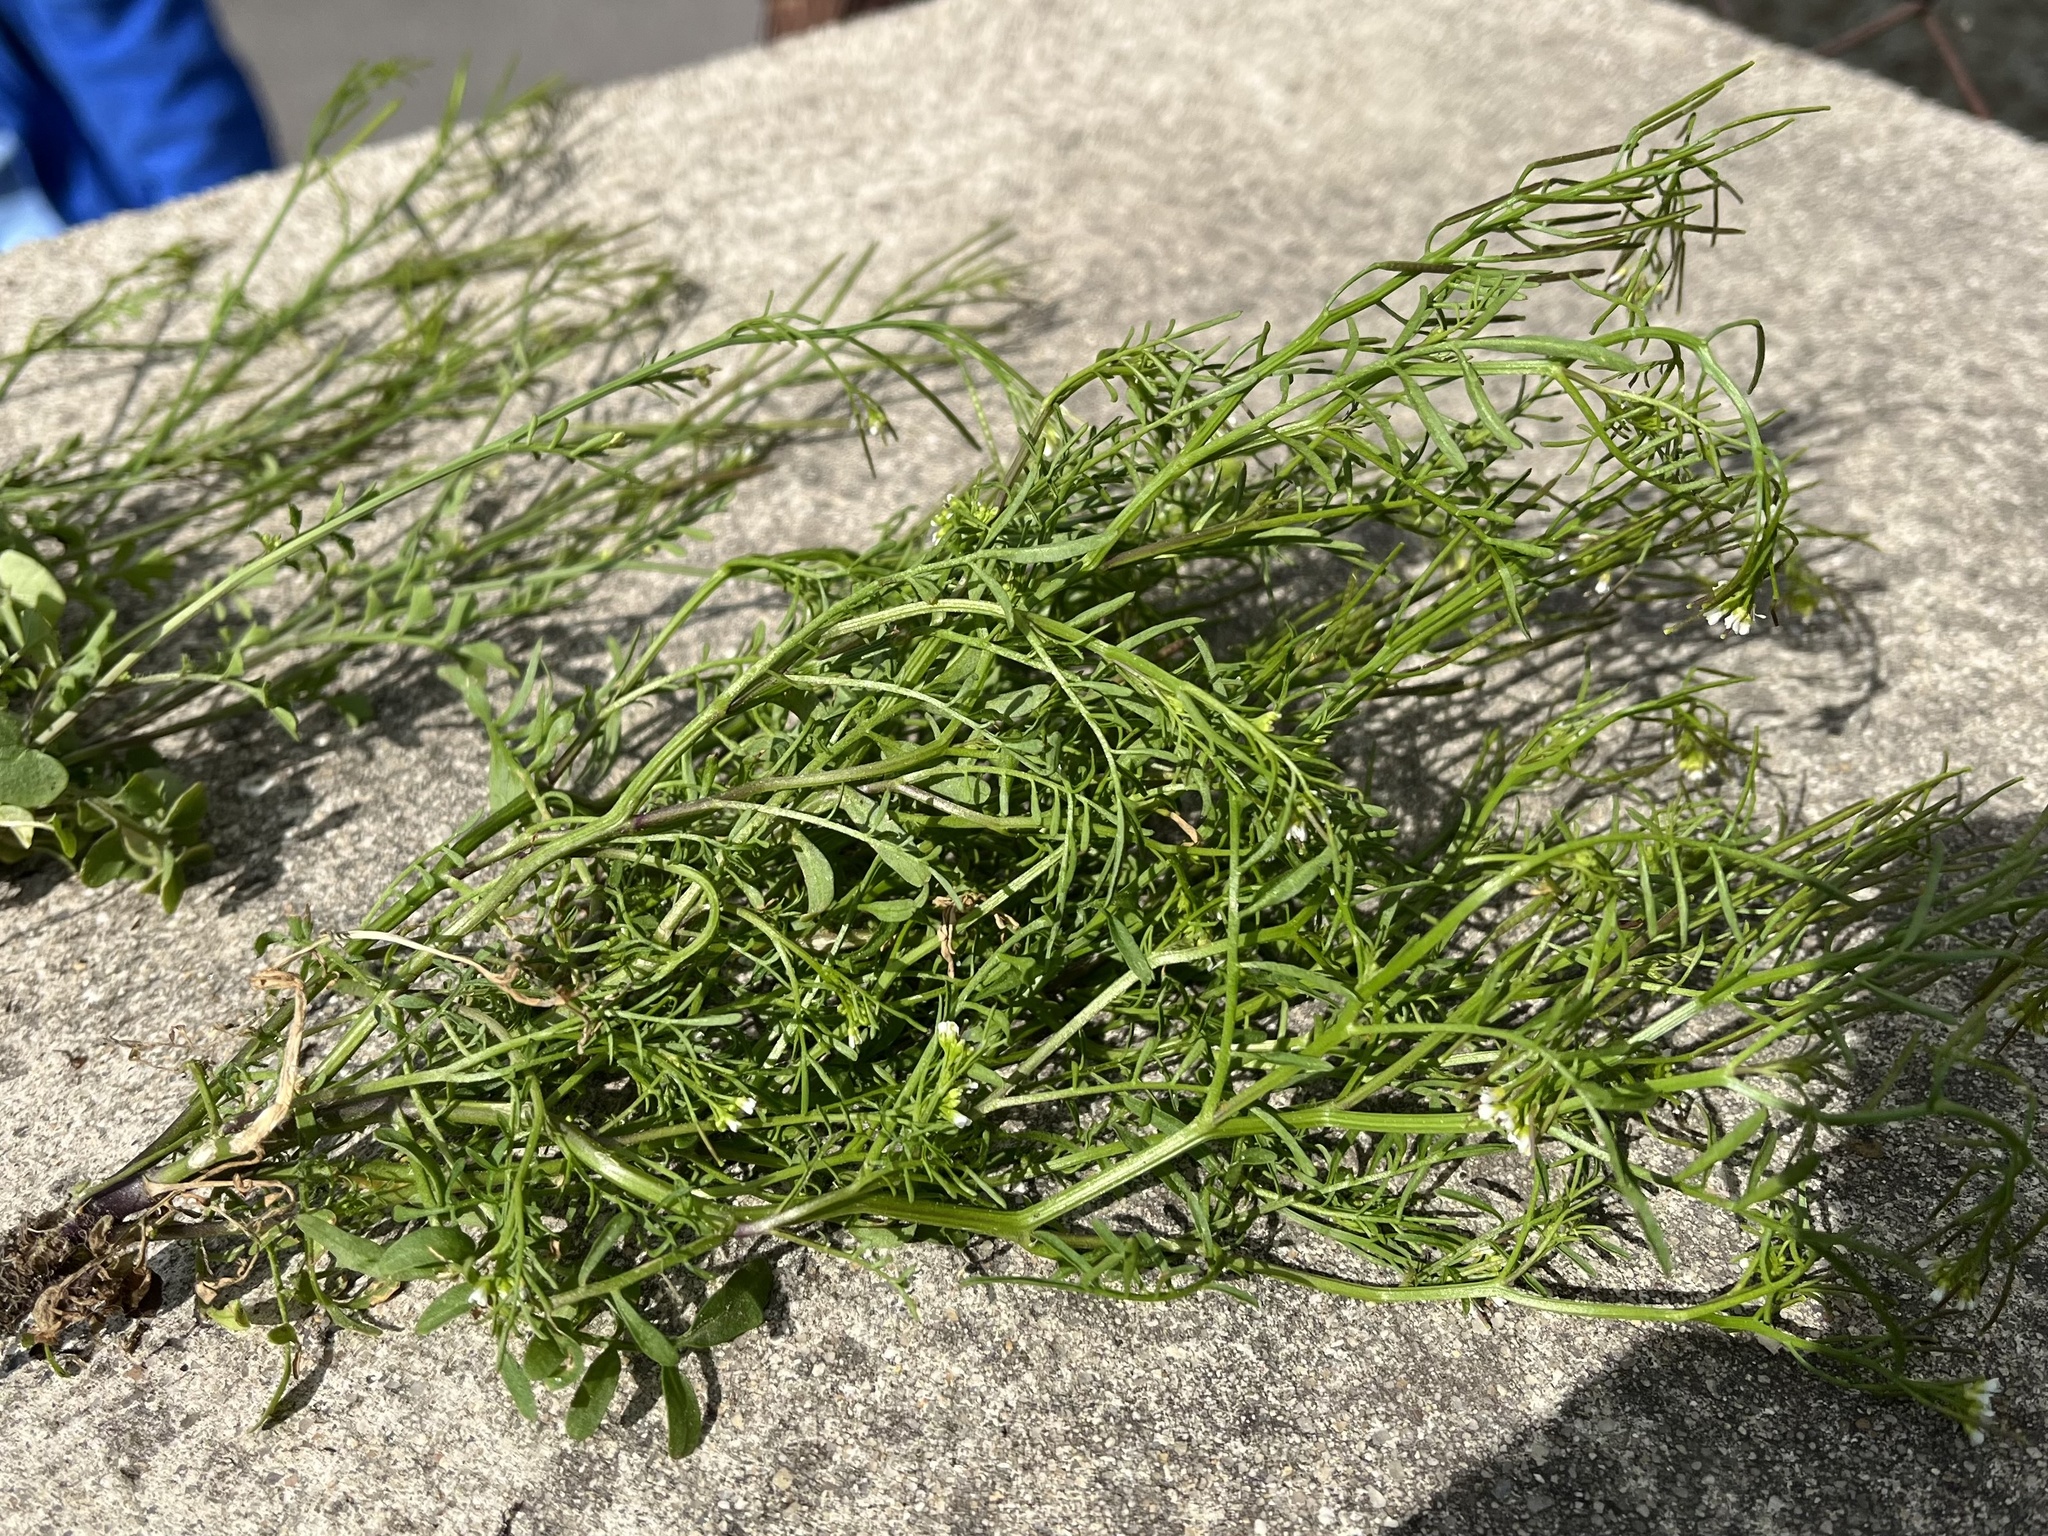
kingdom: Plantae
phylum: Tracheophyta
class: Magnoliopsida
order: Brassicales
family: Brassicaceae
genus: Cardamine
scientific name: Cardamine parviflora
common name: Sand bittercress
